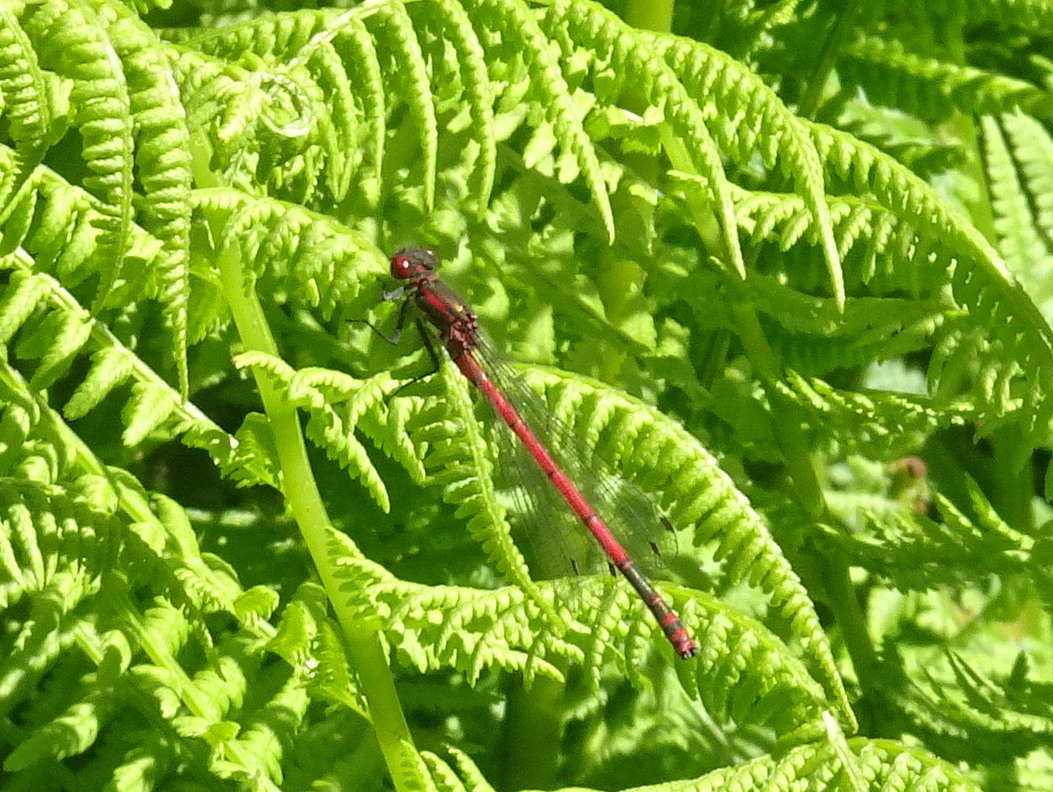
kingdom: Animalia
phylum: Arthropoda
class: Insecta
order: Odonata
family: Coenagrionidae
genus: Pyrrhosoma
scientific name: Pyrrhosoma nymphula
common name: Large red damsel
